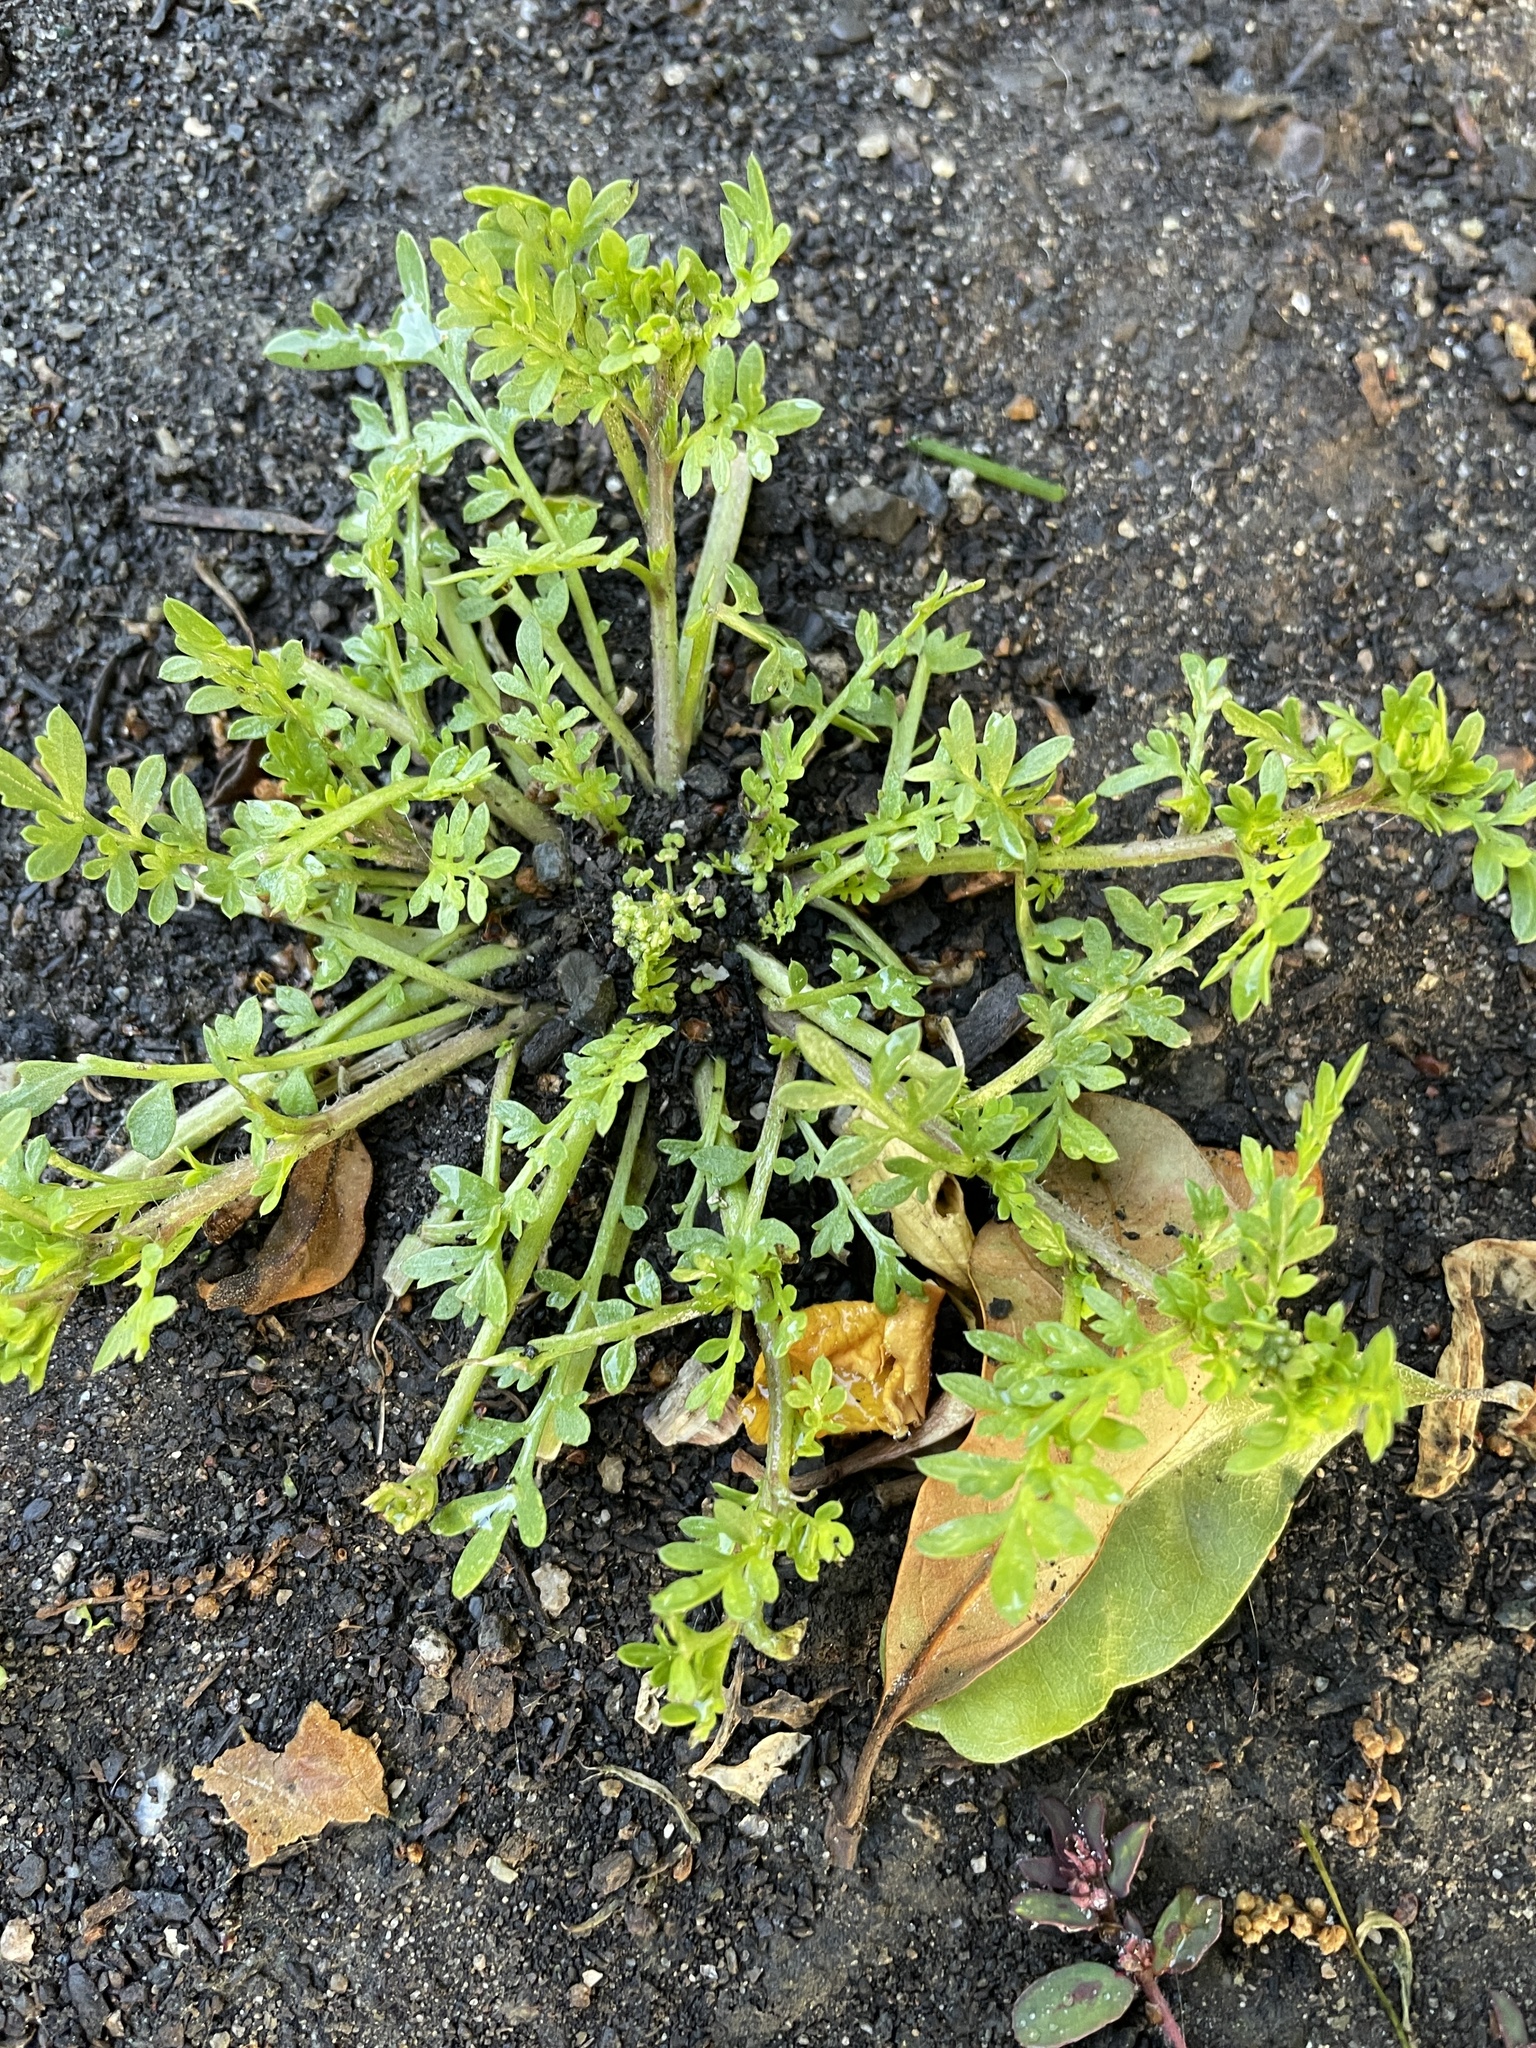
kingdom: Plantae
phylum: Tracheophyta
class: Magnoliopsida
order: Brassicales
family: Brassicaceae
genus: Lepidium
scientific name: Lepidium didymum
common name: Lesser swinecress
